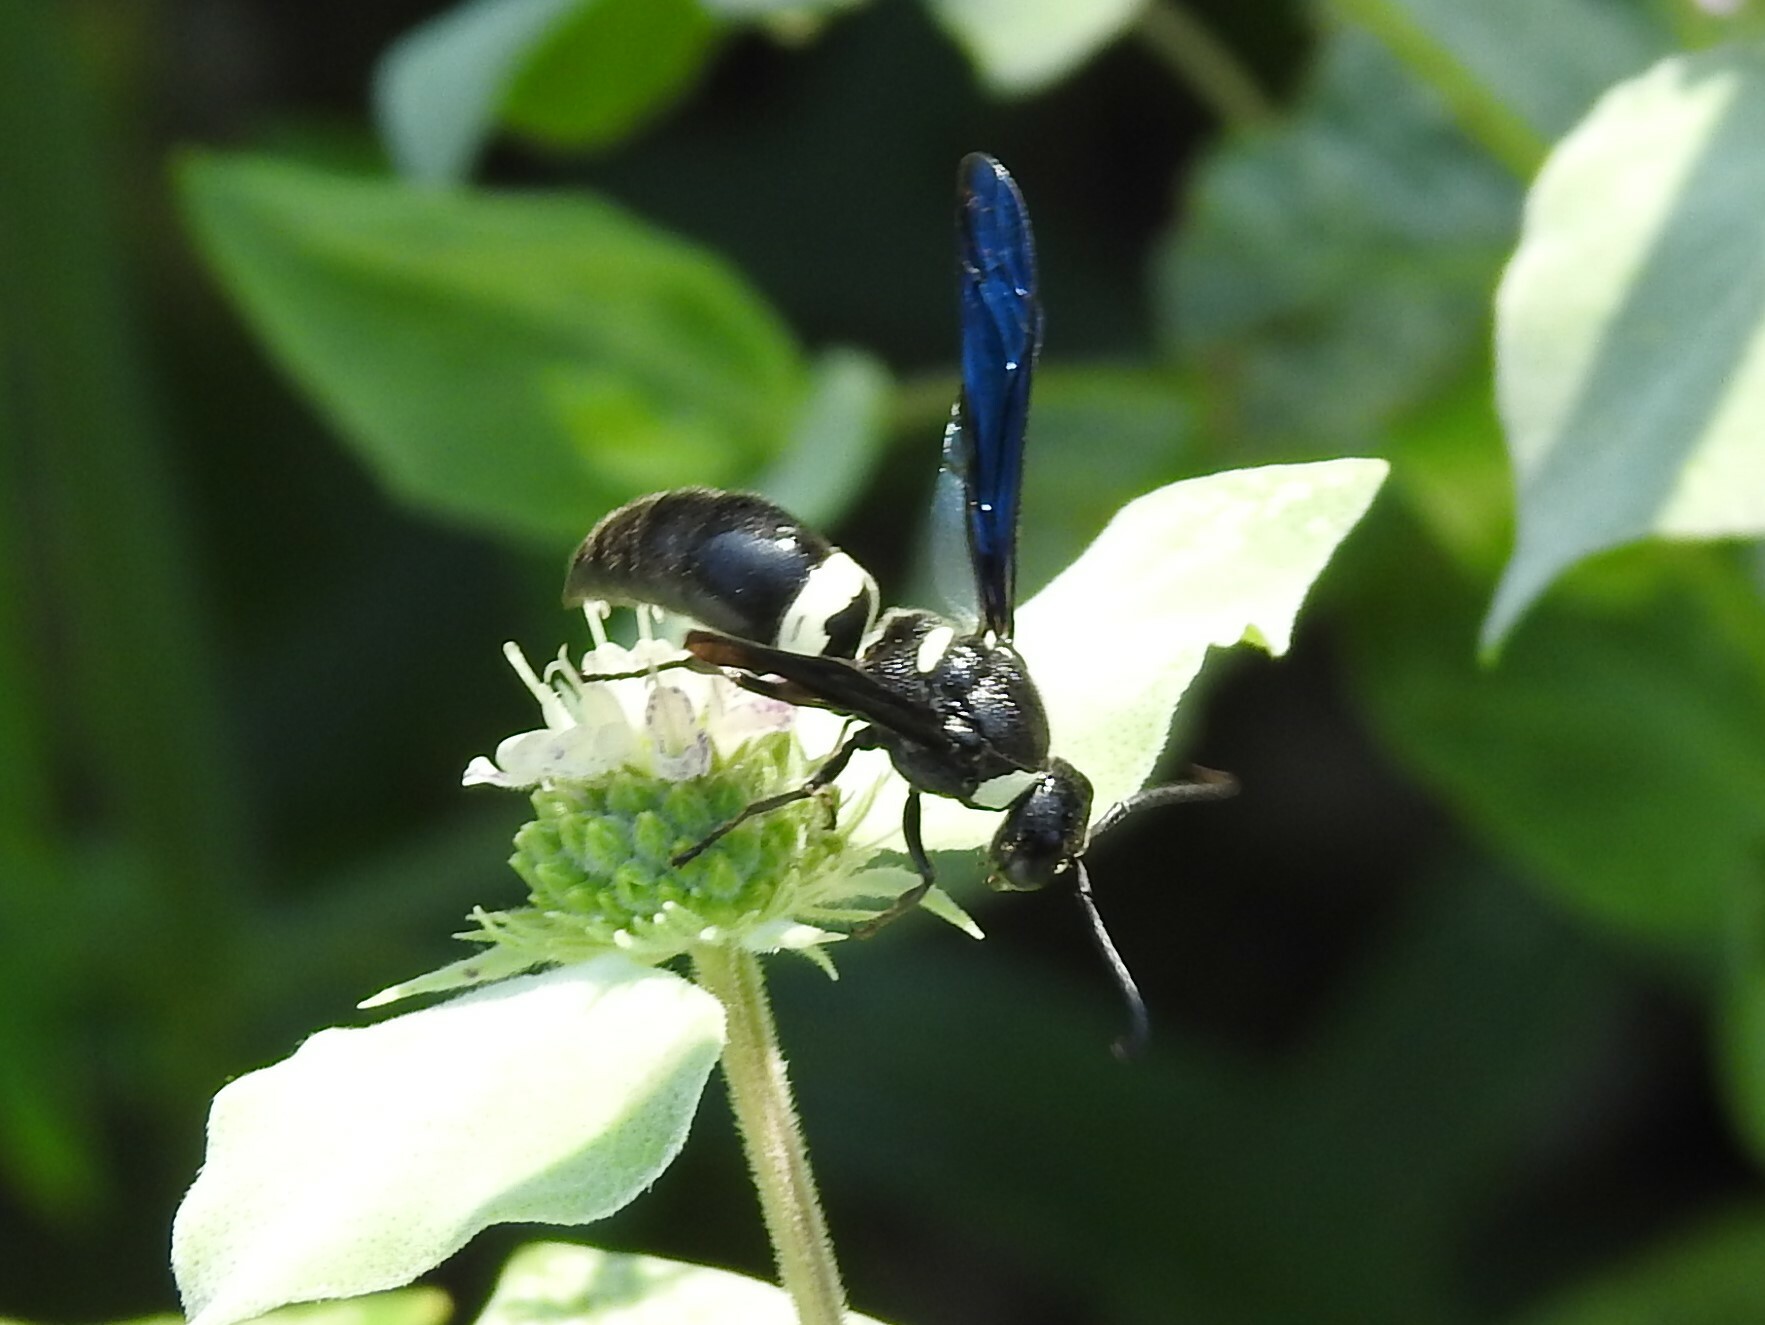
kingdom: Animalia
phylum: Arthropoda
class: Insecta
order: Hymenoptera
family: Eumenidae
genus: Monobia
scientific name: Monobia quadridens
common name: Four-toothed mason wasp
